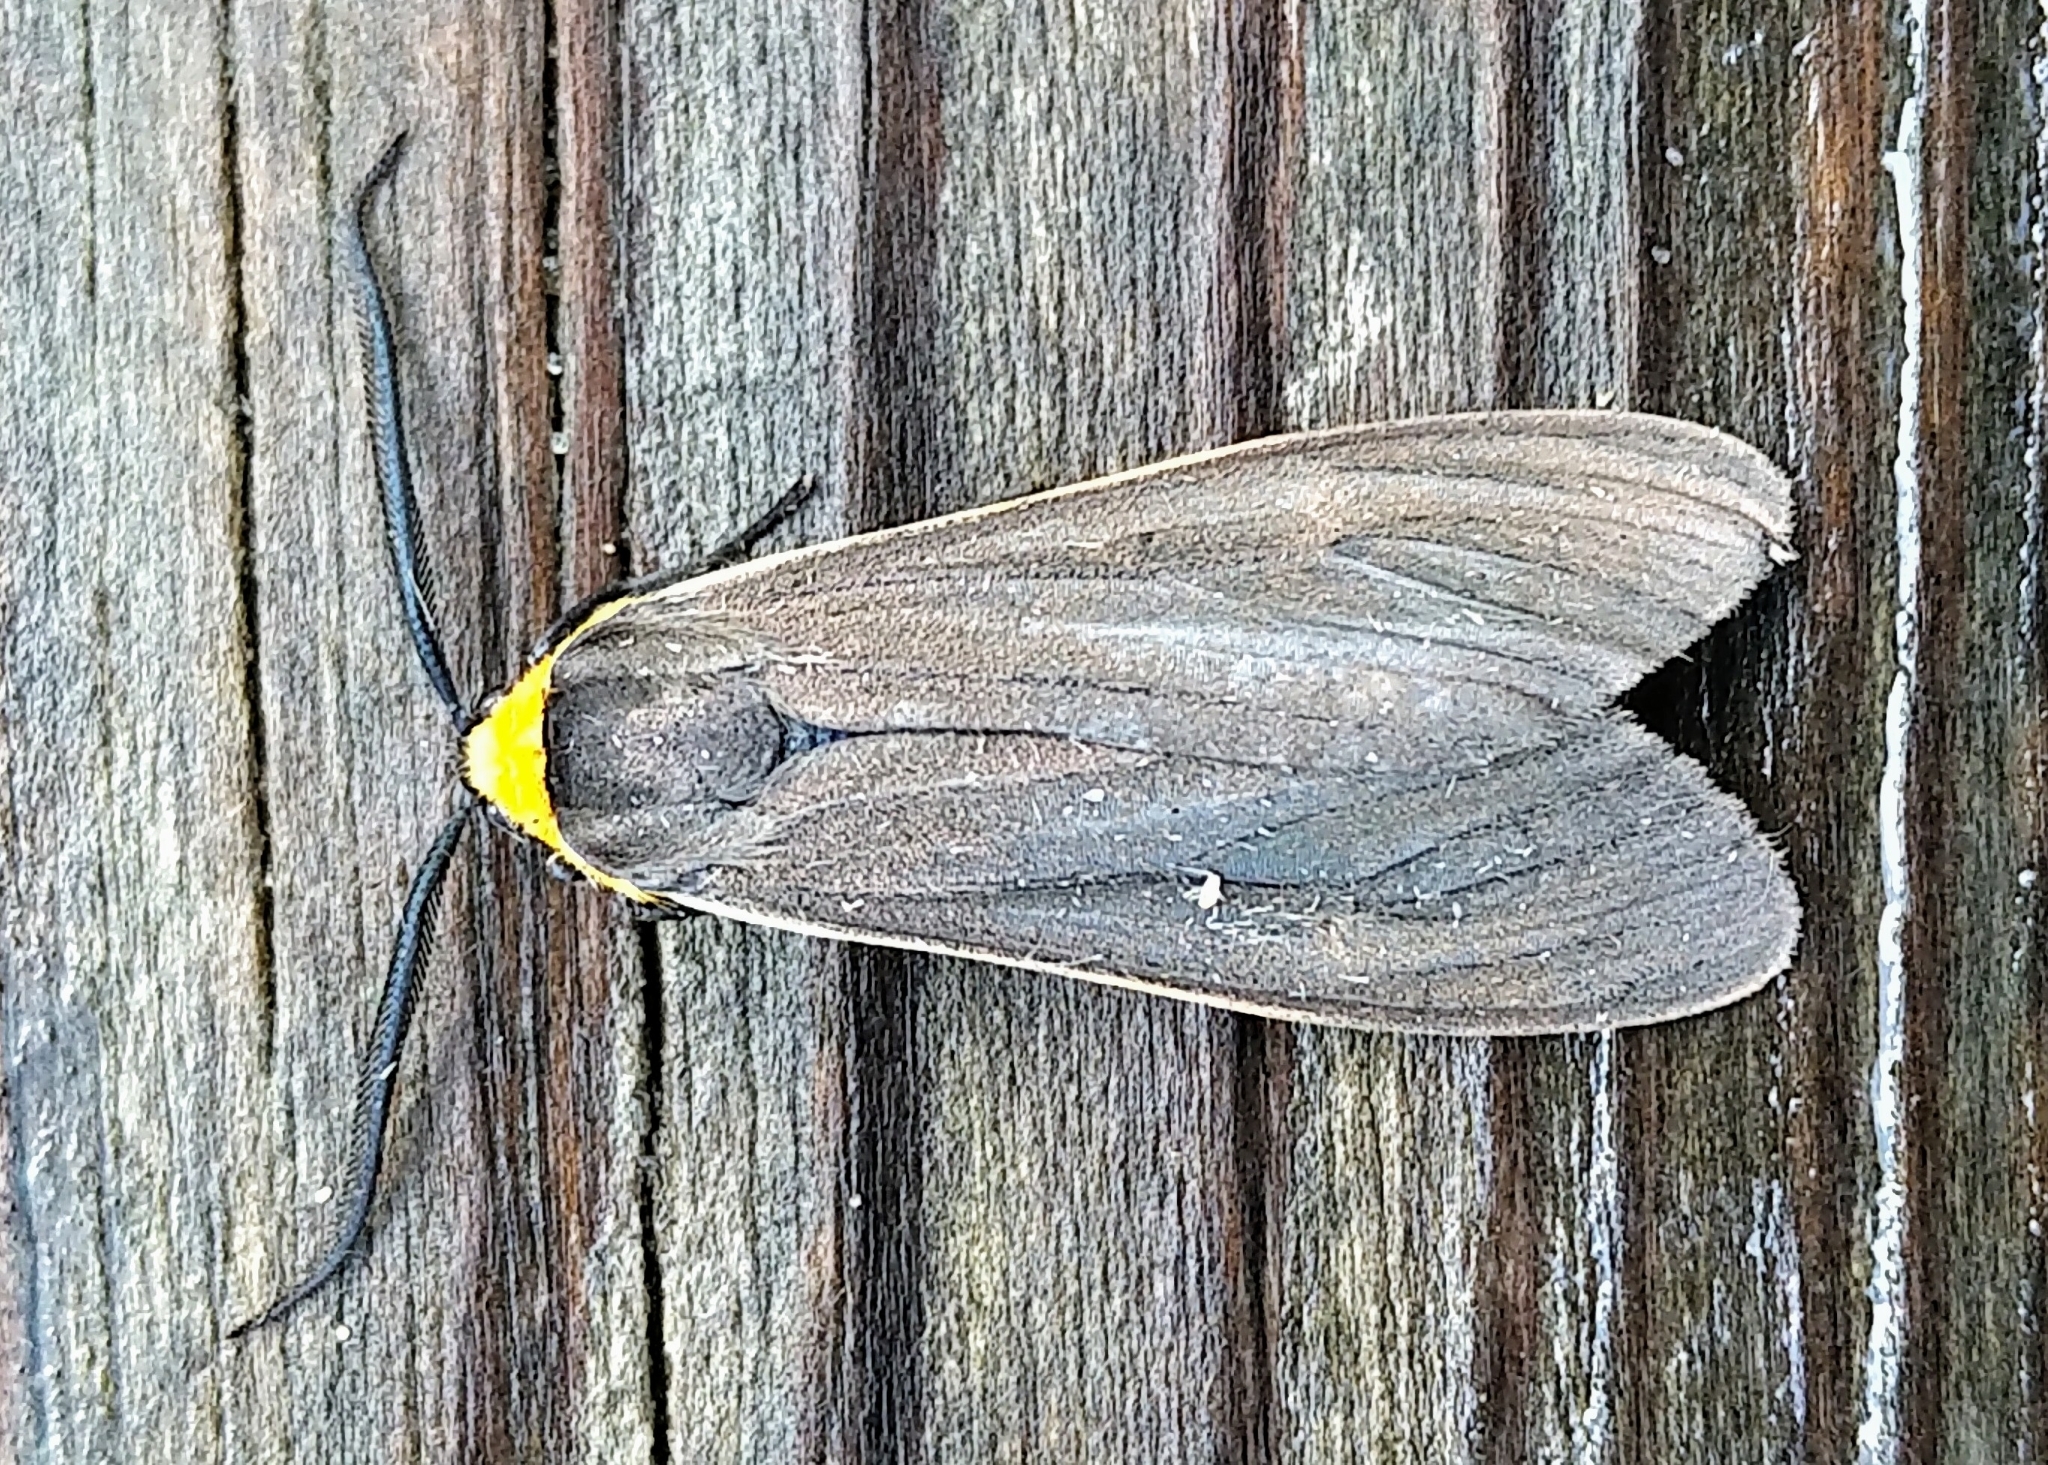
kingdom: Animalia
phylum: Arthropoda
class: Insecta
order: Lepidoptera
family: Erebidae
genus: Cisseps
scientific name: Cisseps fulvicollis
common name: Yellow-collared scape moth
